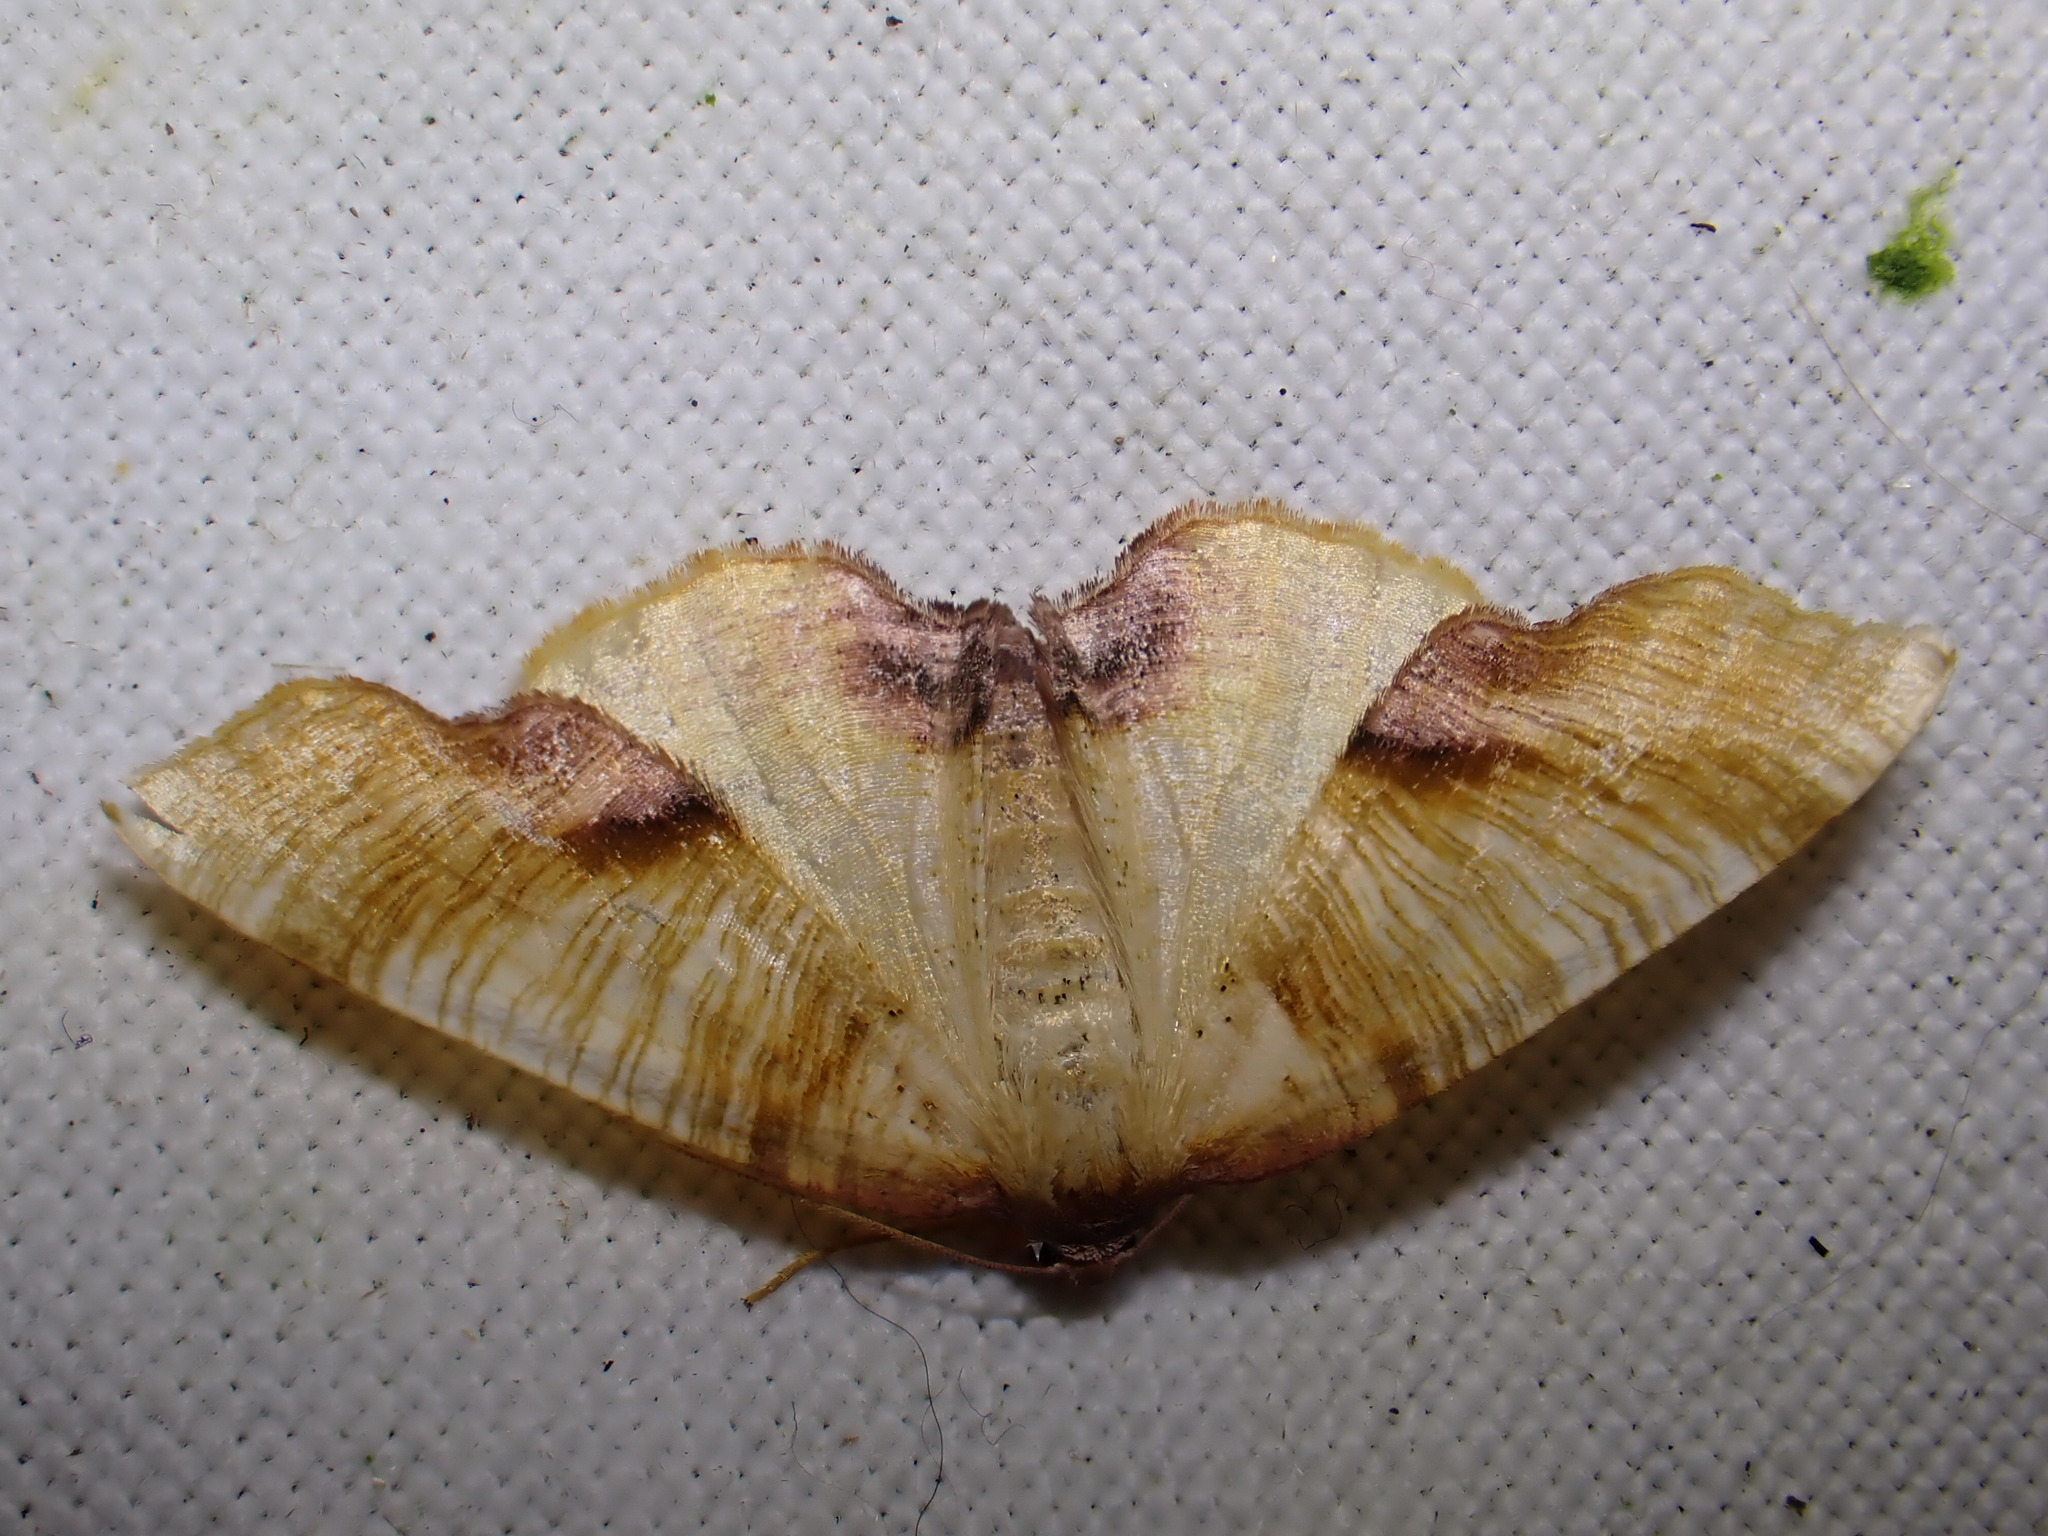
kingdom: Animalia
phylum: Arthropoda
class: Insecta
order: Lepidoptera
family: Geometridae
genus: Plagodis
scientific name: Plagodis dolabraria
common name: Scorched wing
